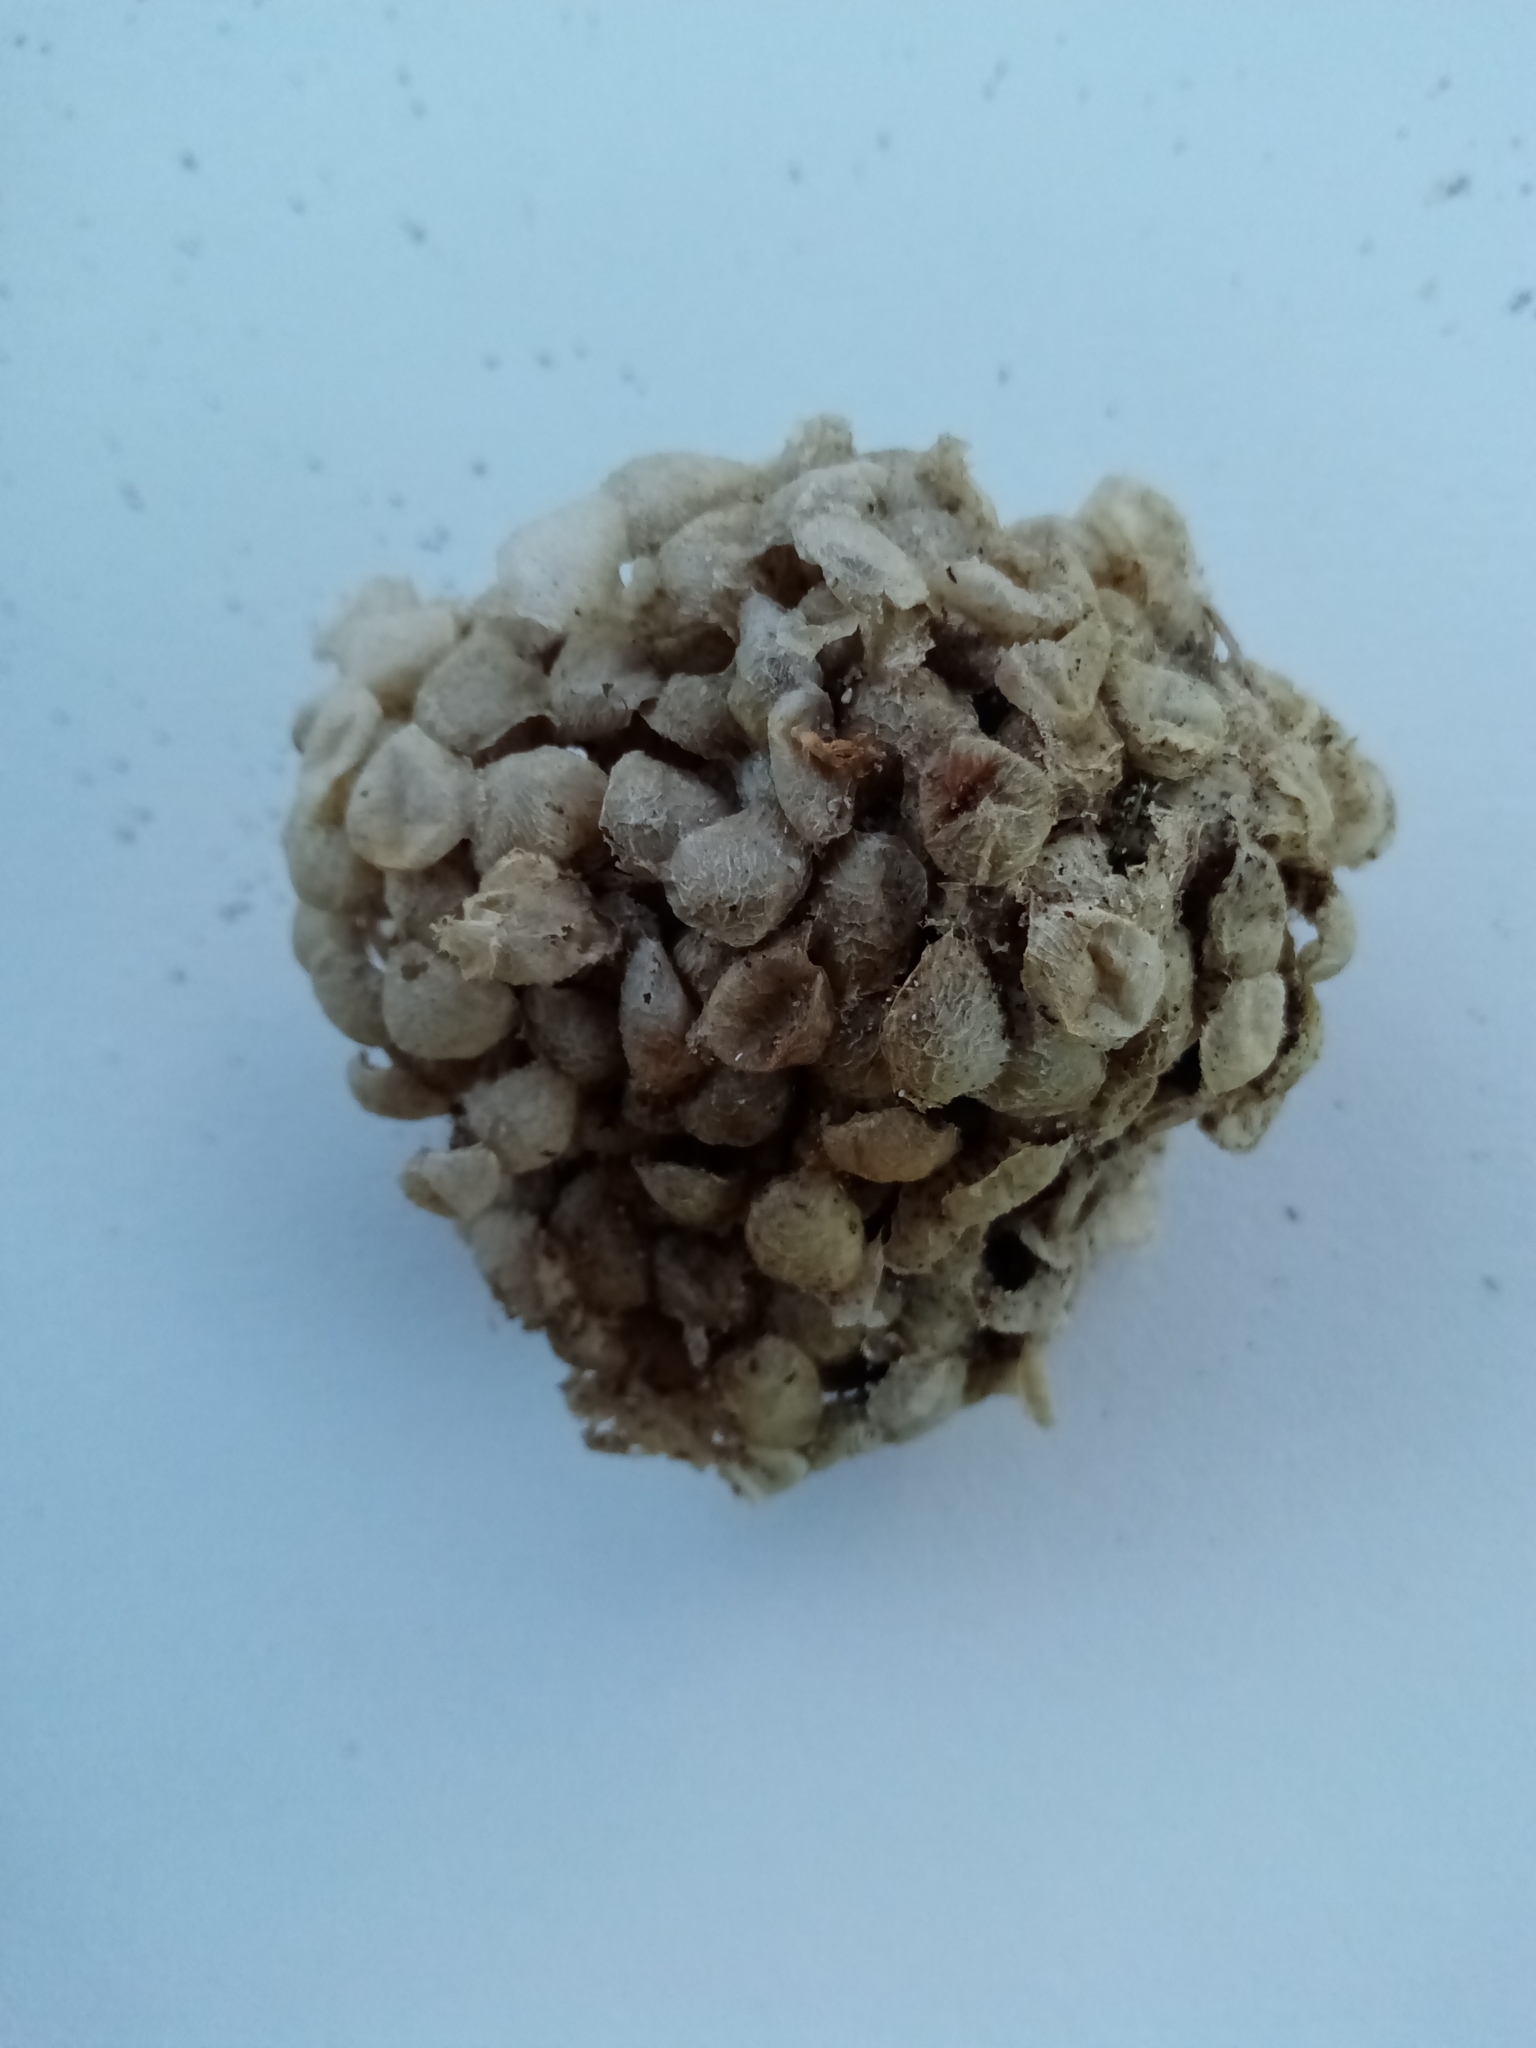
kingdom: Animalia
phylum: Mollusca
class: Gastropoda
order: Neogastropoda
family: Buccinidae
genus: Buccinum
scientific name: Buccinum undatum
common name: Common whelk
